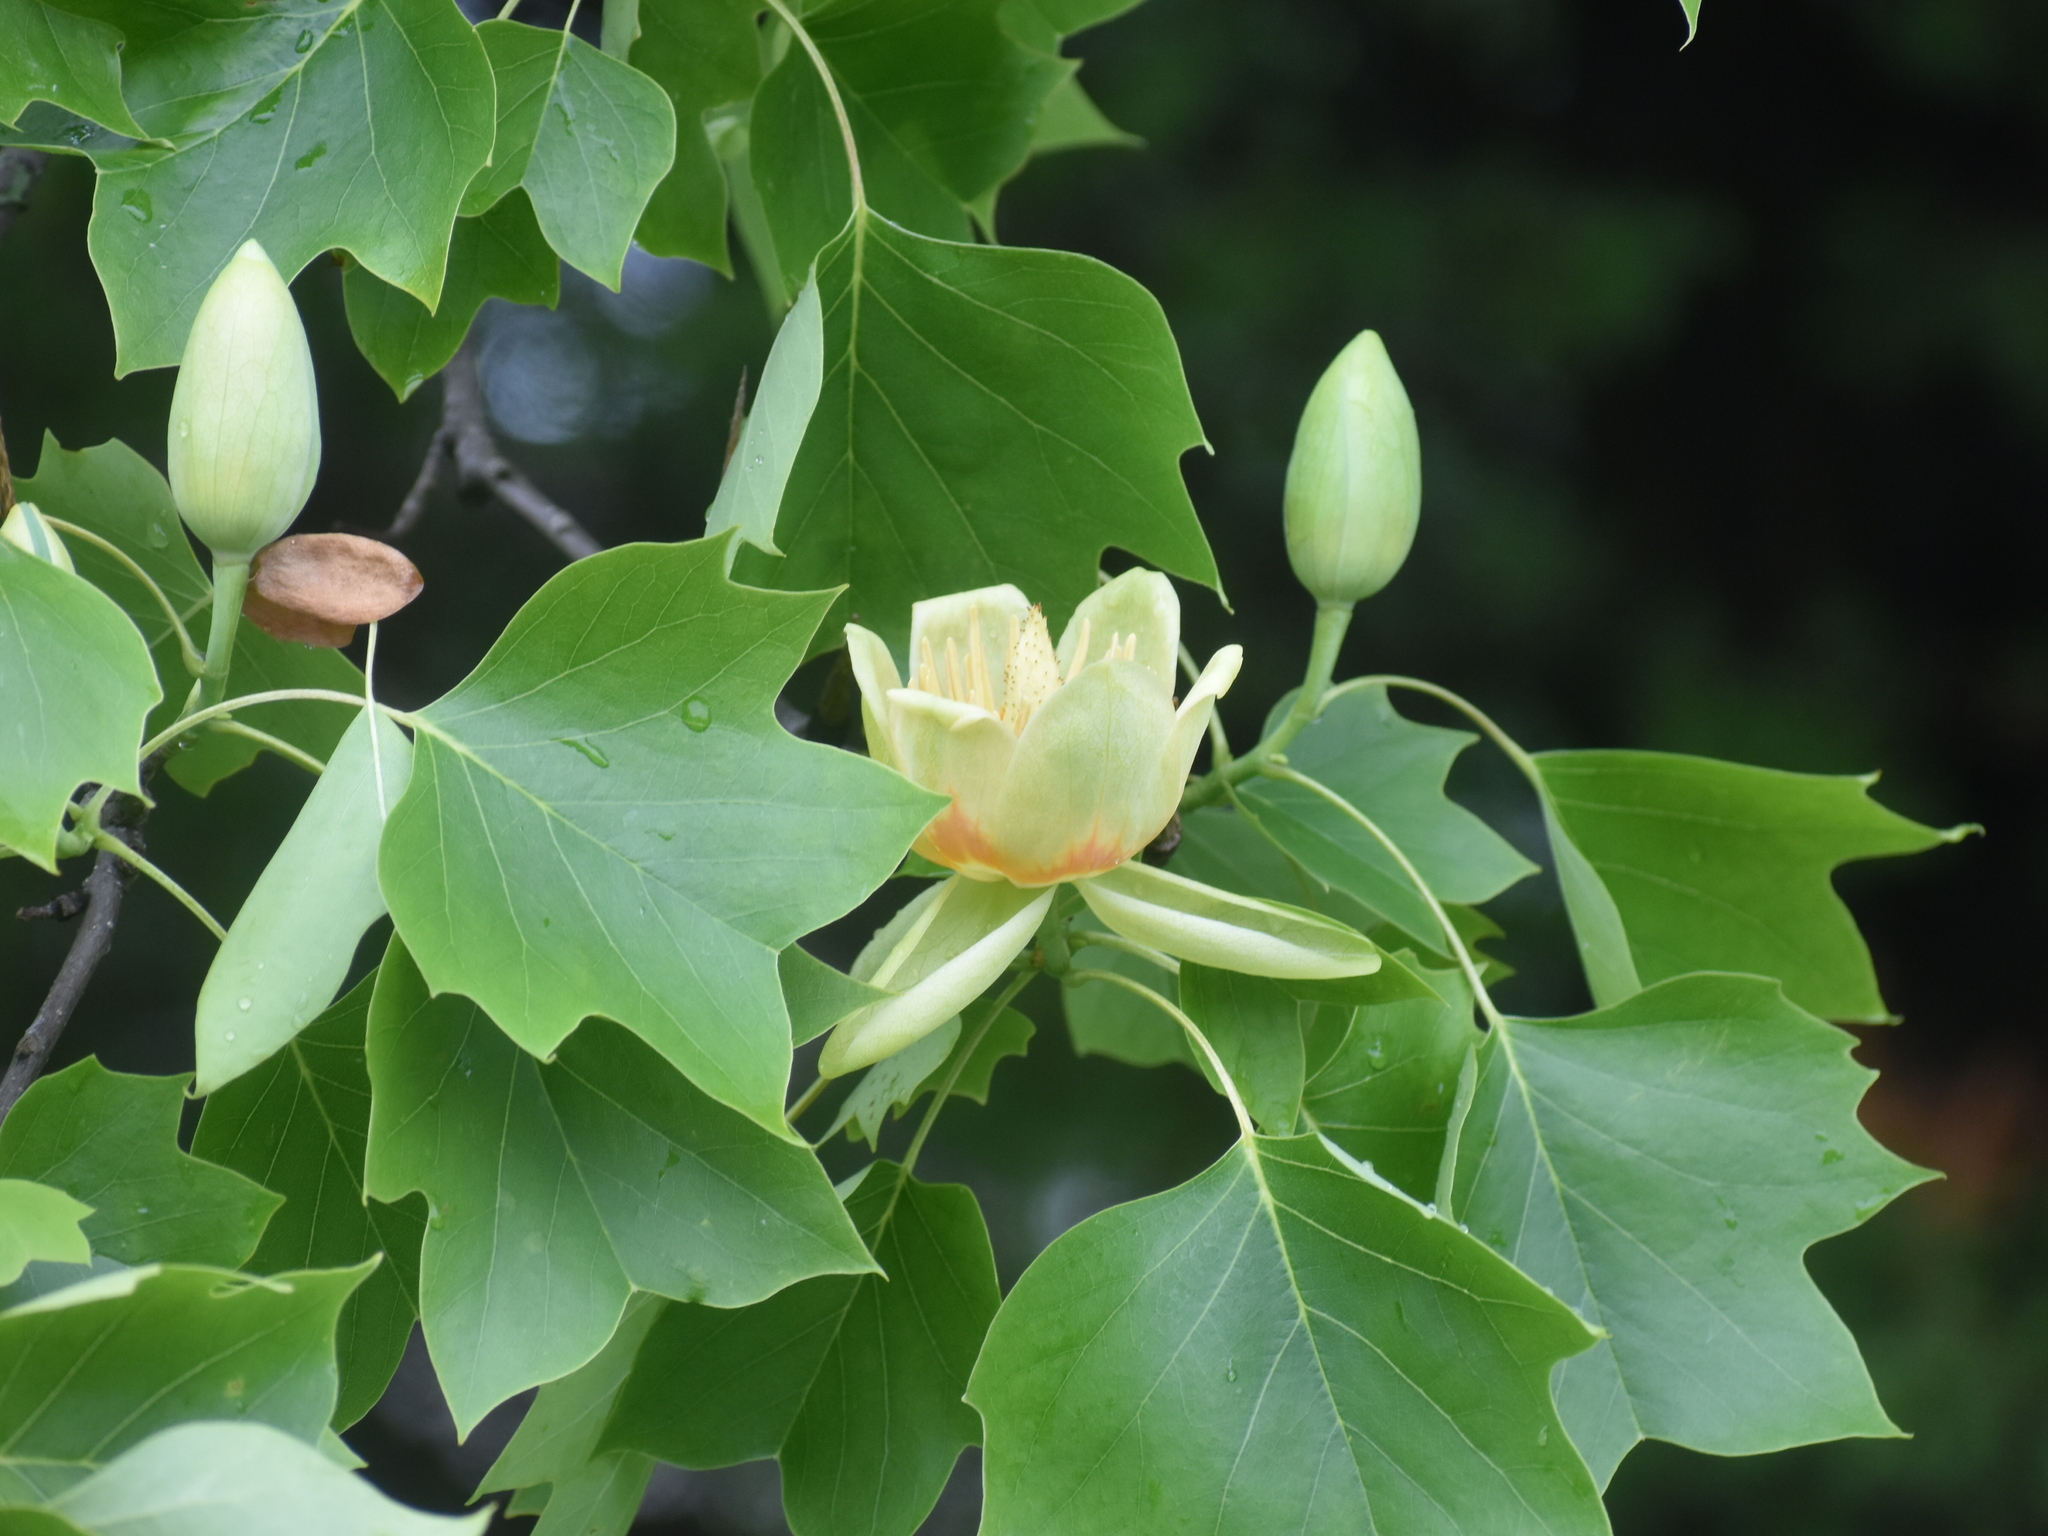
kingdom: Plantae
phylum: Tracheophyta
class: Magnoliopsida
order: Magnoliales
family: Magnoliaceae
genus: Liriodendron
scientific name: Liriodendron tulipifera
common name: Tulip tree
